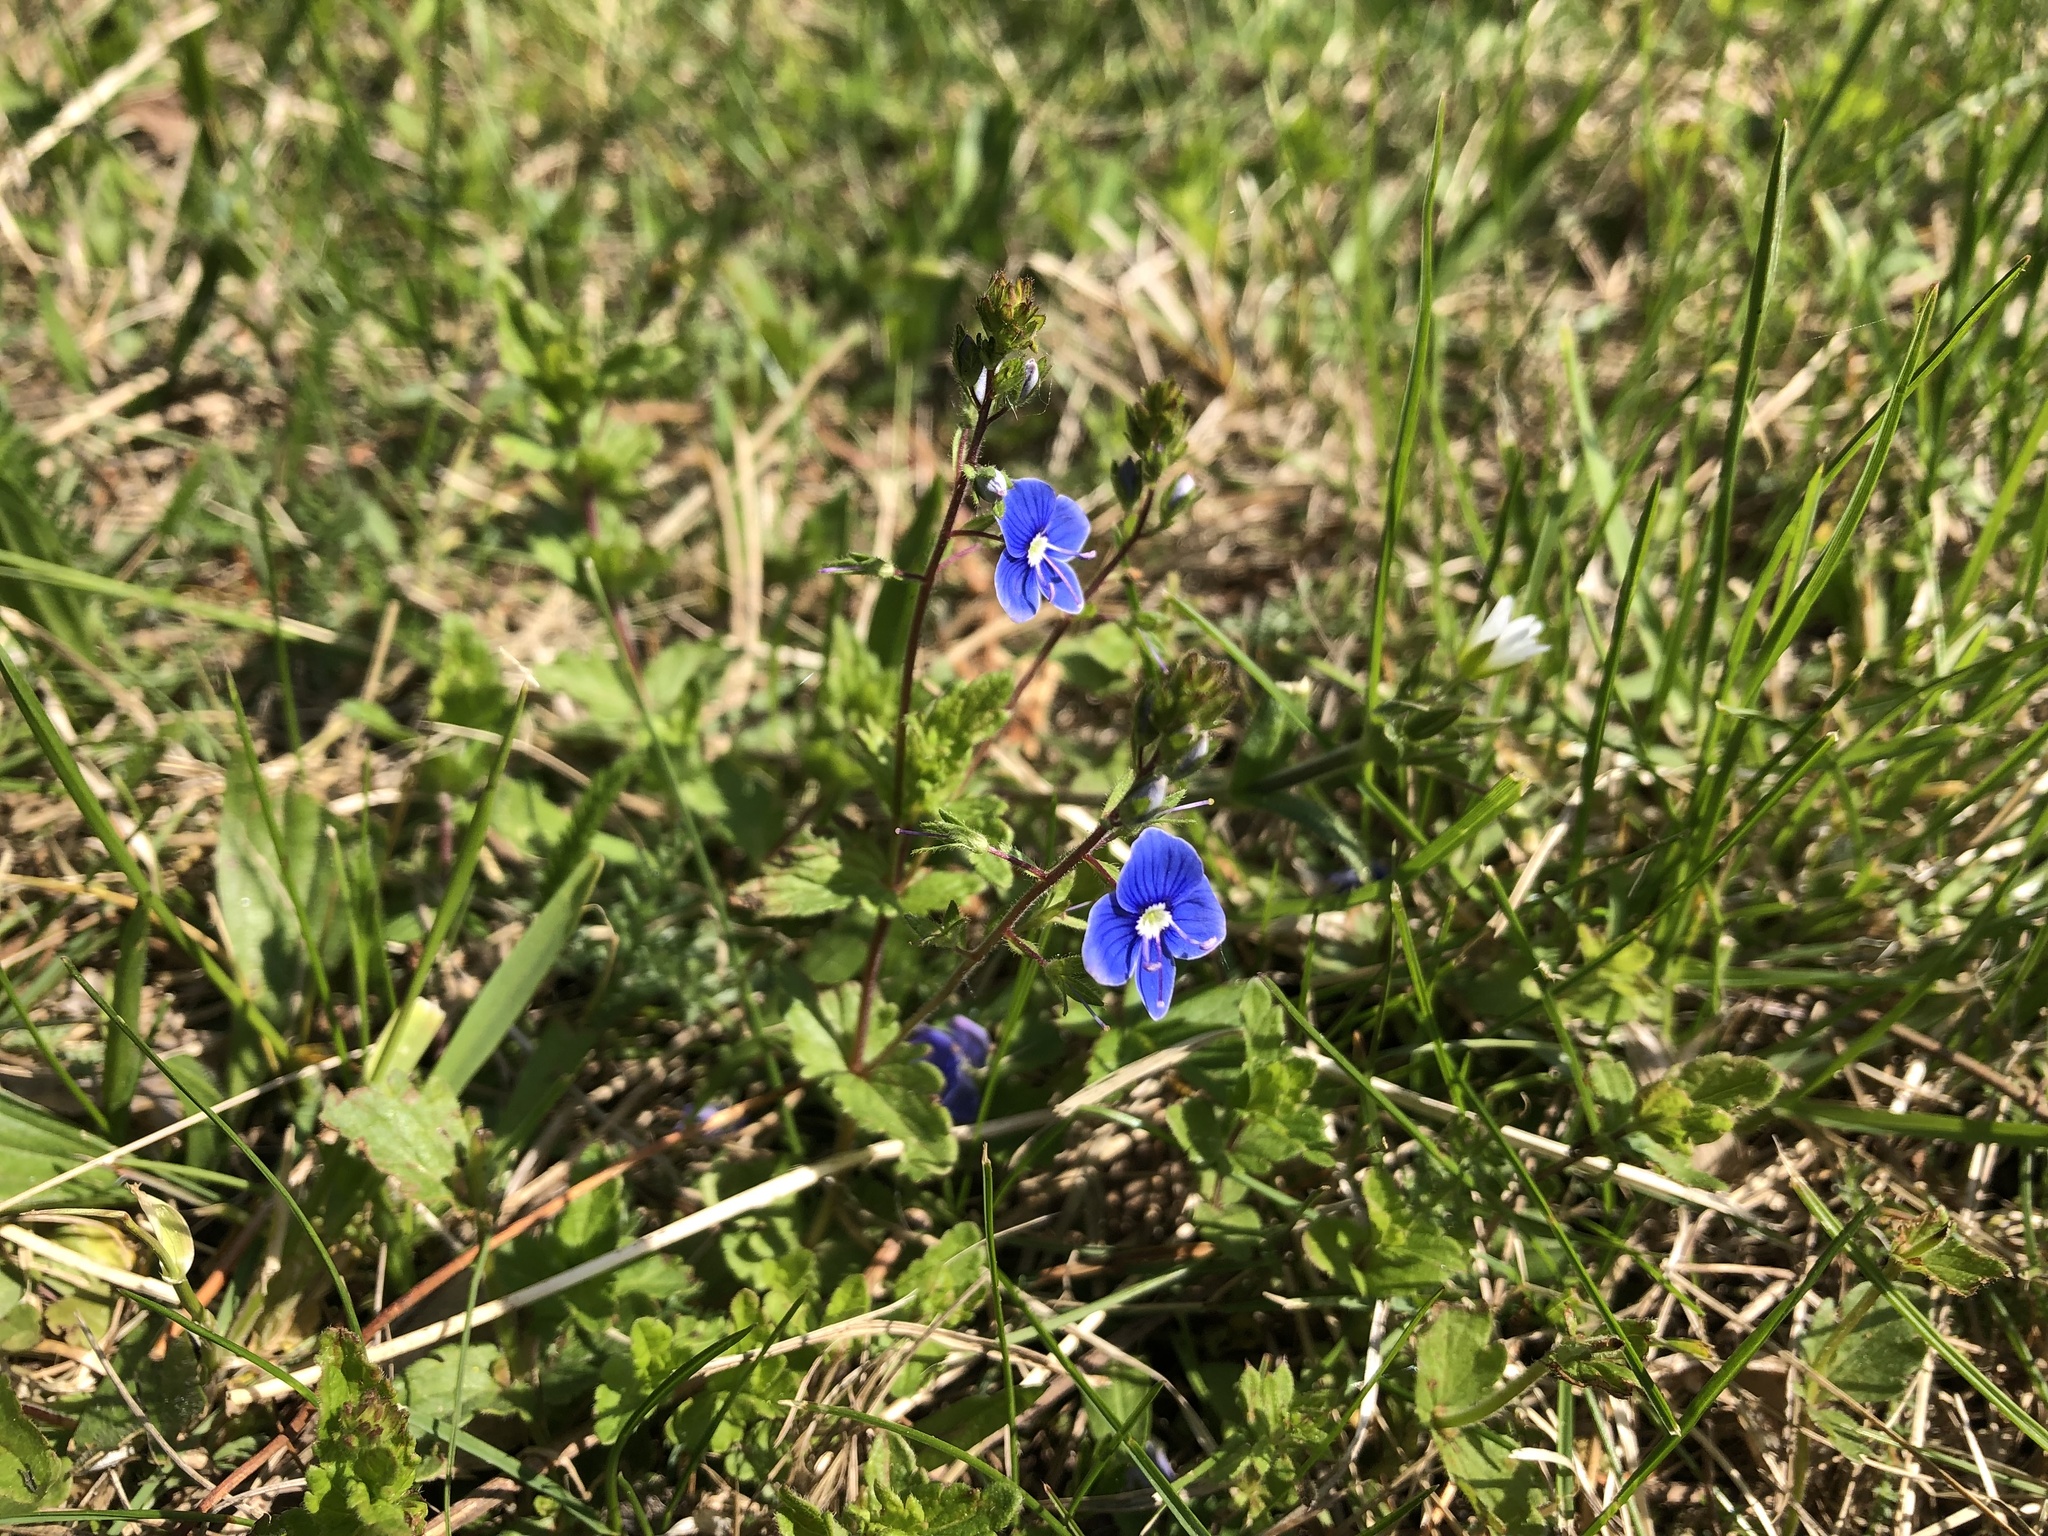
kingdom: Plantae
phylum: Tracheophyta
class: Magnoliopsida
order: Lamiales
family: Plantaginaceae
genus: Veronica
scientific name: Veronica chamaedrys
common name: Germander speedwell
